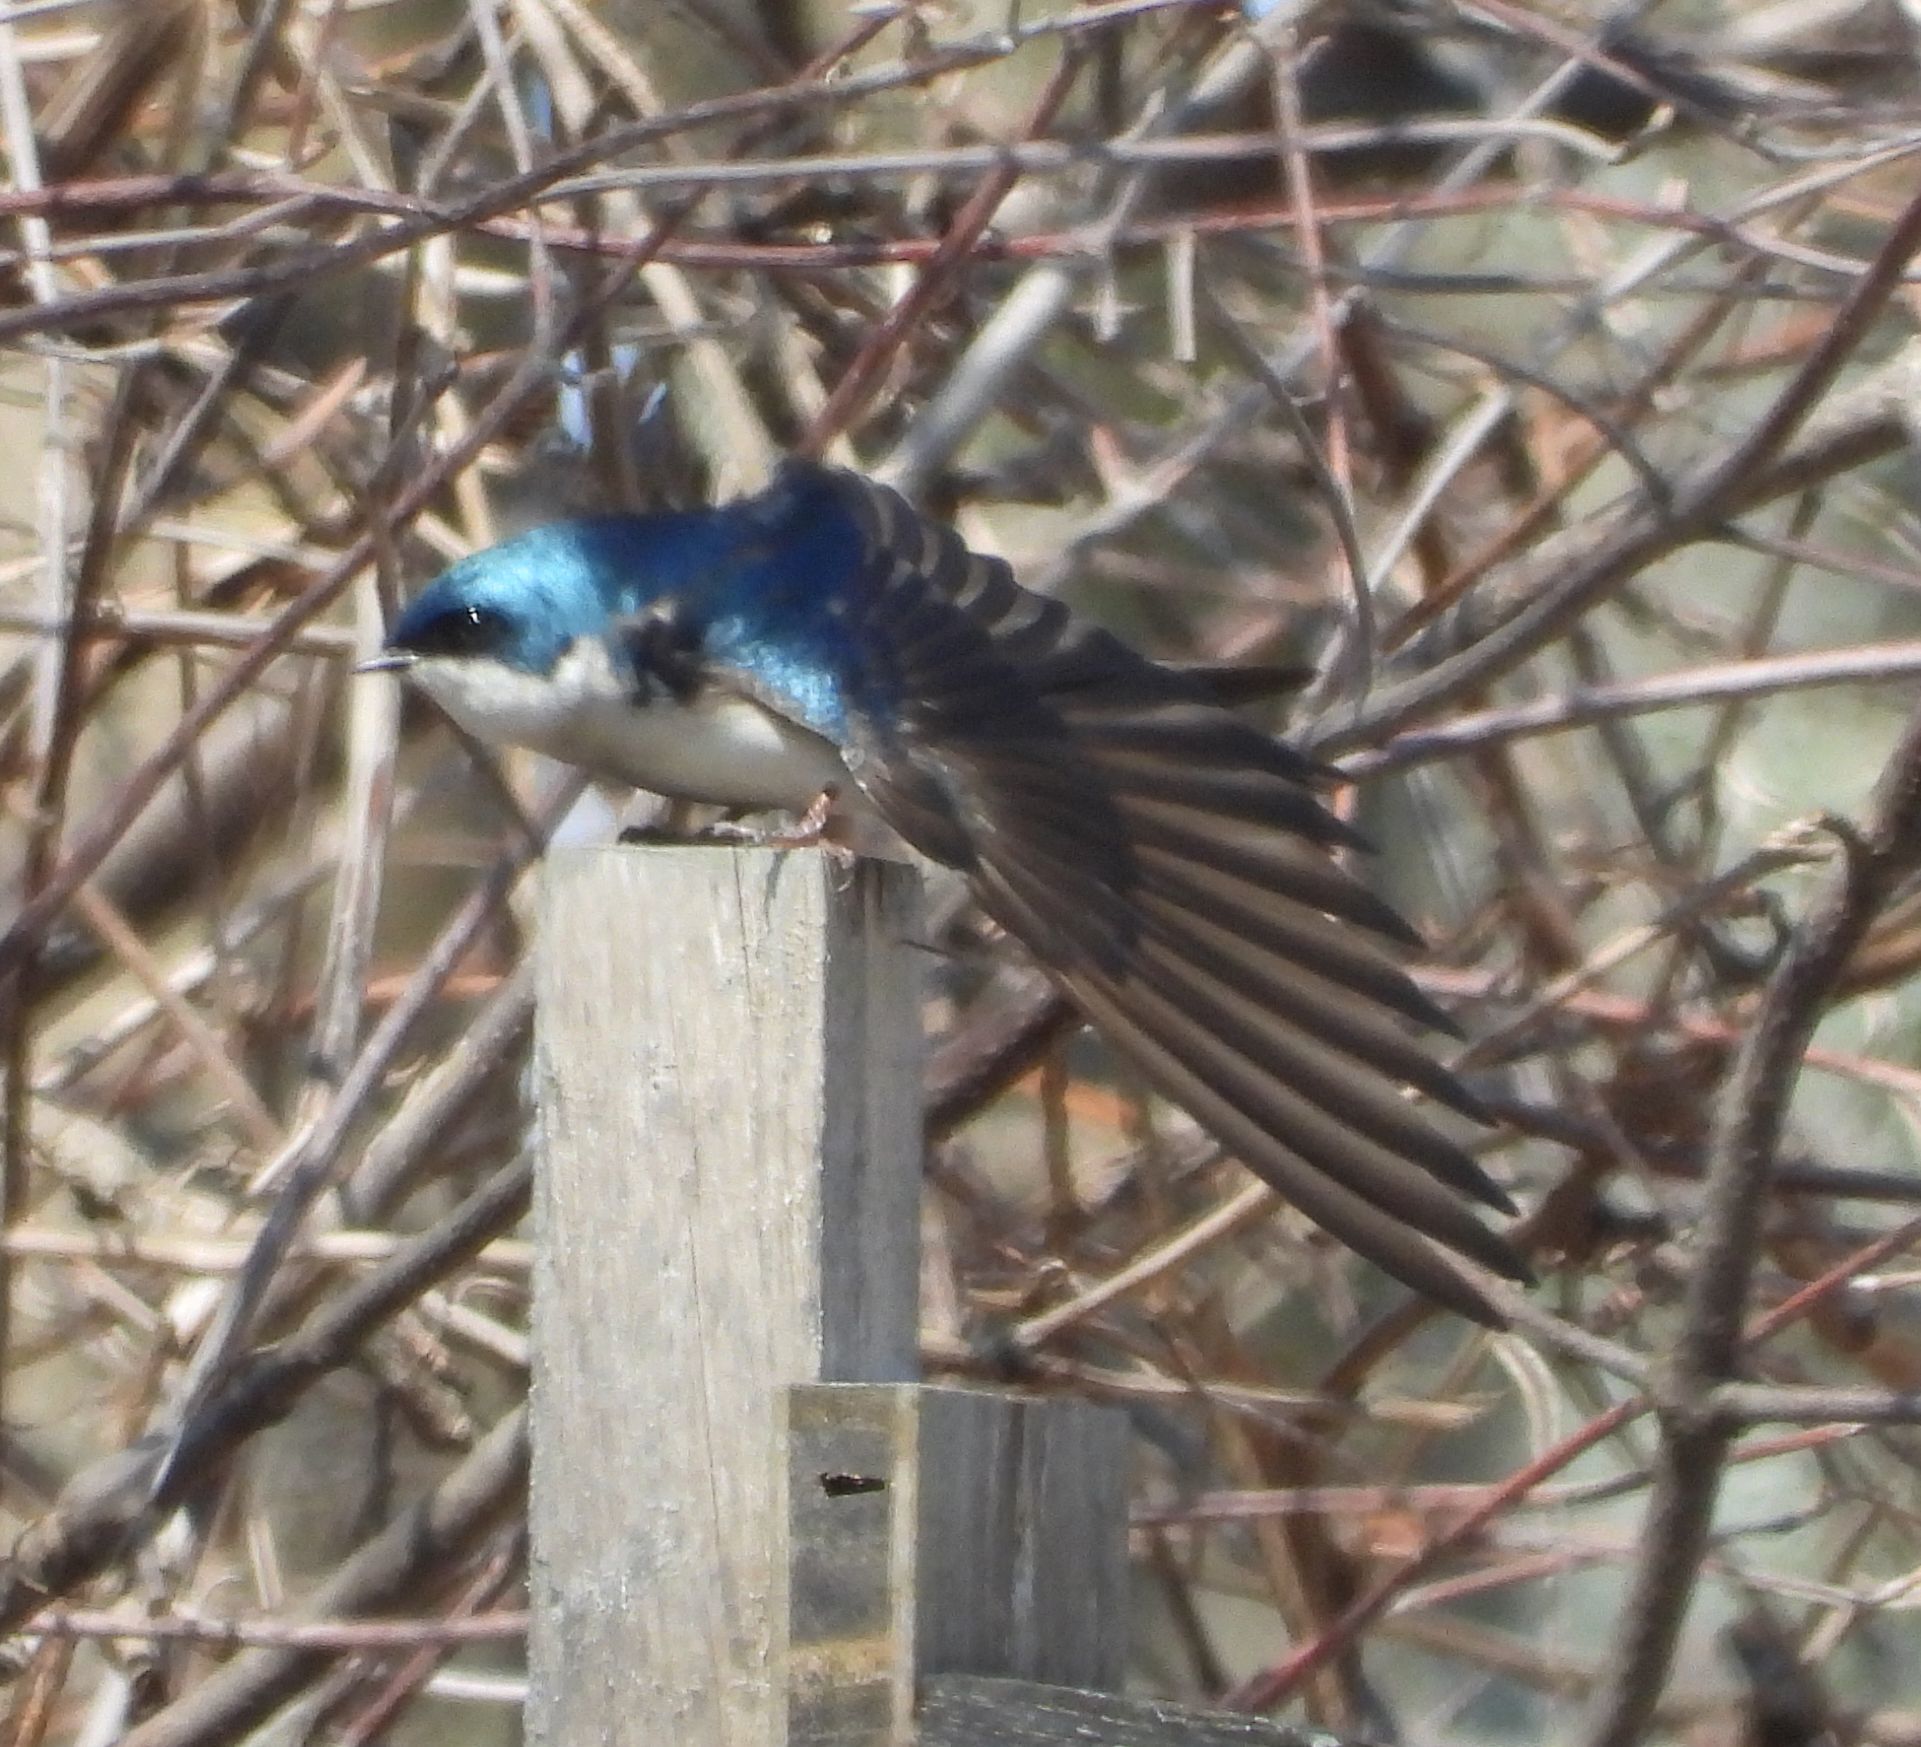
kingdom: Animalia
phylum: Chordata
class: Aves
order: Passeriformes
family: Hirundinidae
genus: Tachycineta
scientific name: Tachycineta bicolor
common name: Tree swallow
